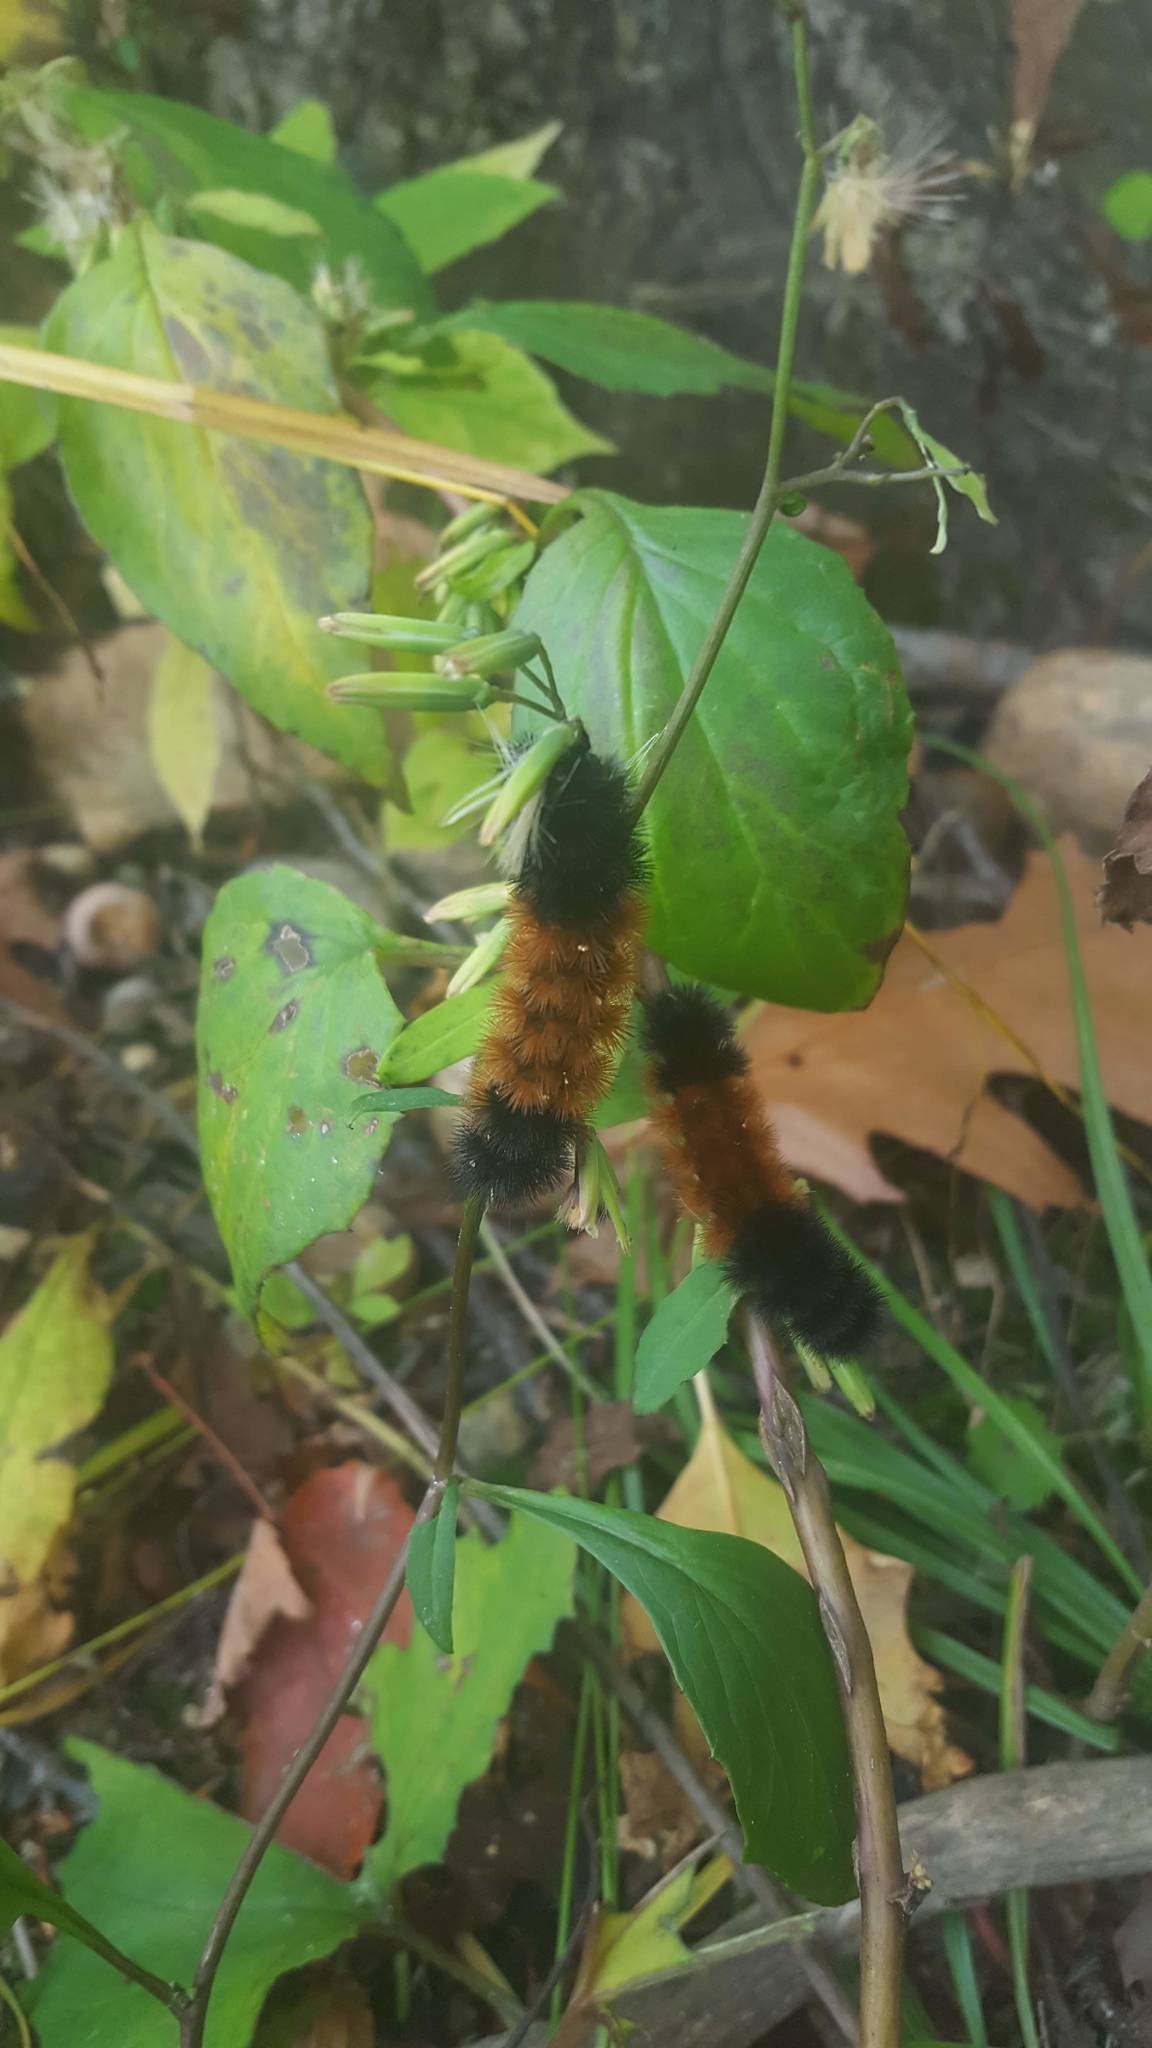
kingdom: Animalia
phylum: Arthropoda
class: Insecta
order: Lepidoptera
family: Erebidae
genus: Pyrrharctia
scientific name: Pyrrharctia isabella
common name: Isabella tiger moth
